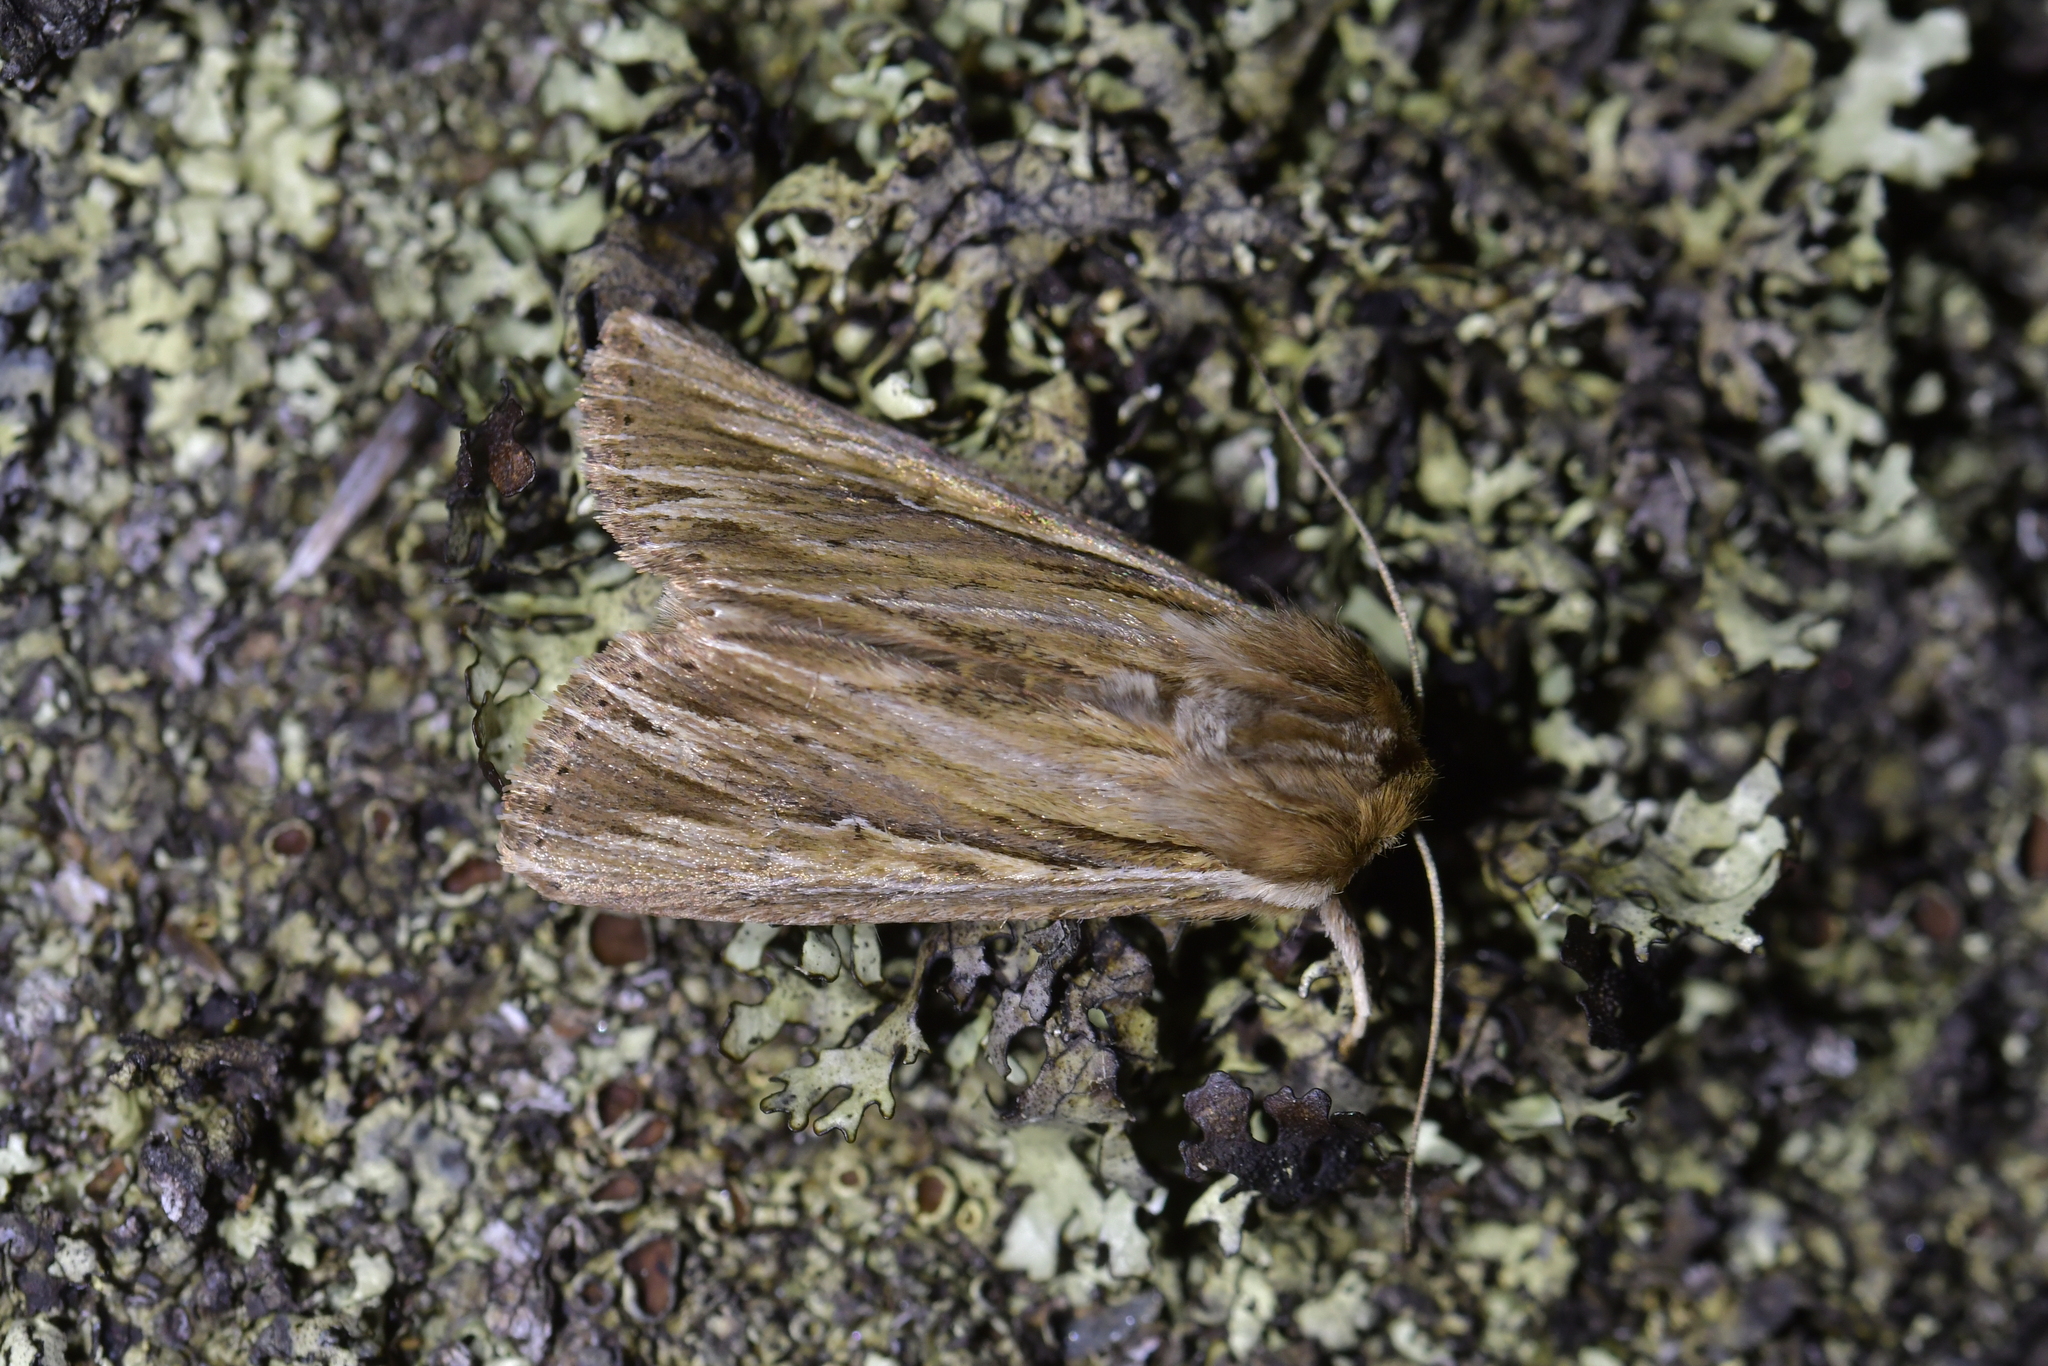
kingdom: Animalia
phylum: Arthropoda
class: Insecta
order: Lepidoptera
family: Noctuidae
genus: Persectania
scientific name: Persectania aversa
